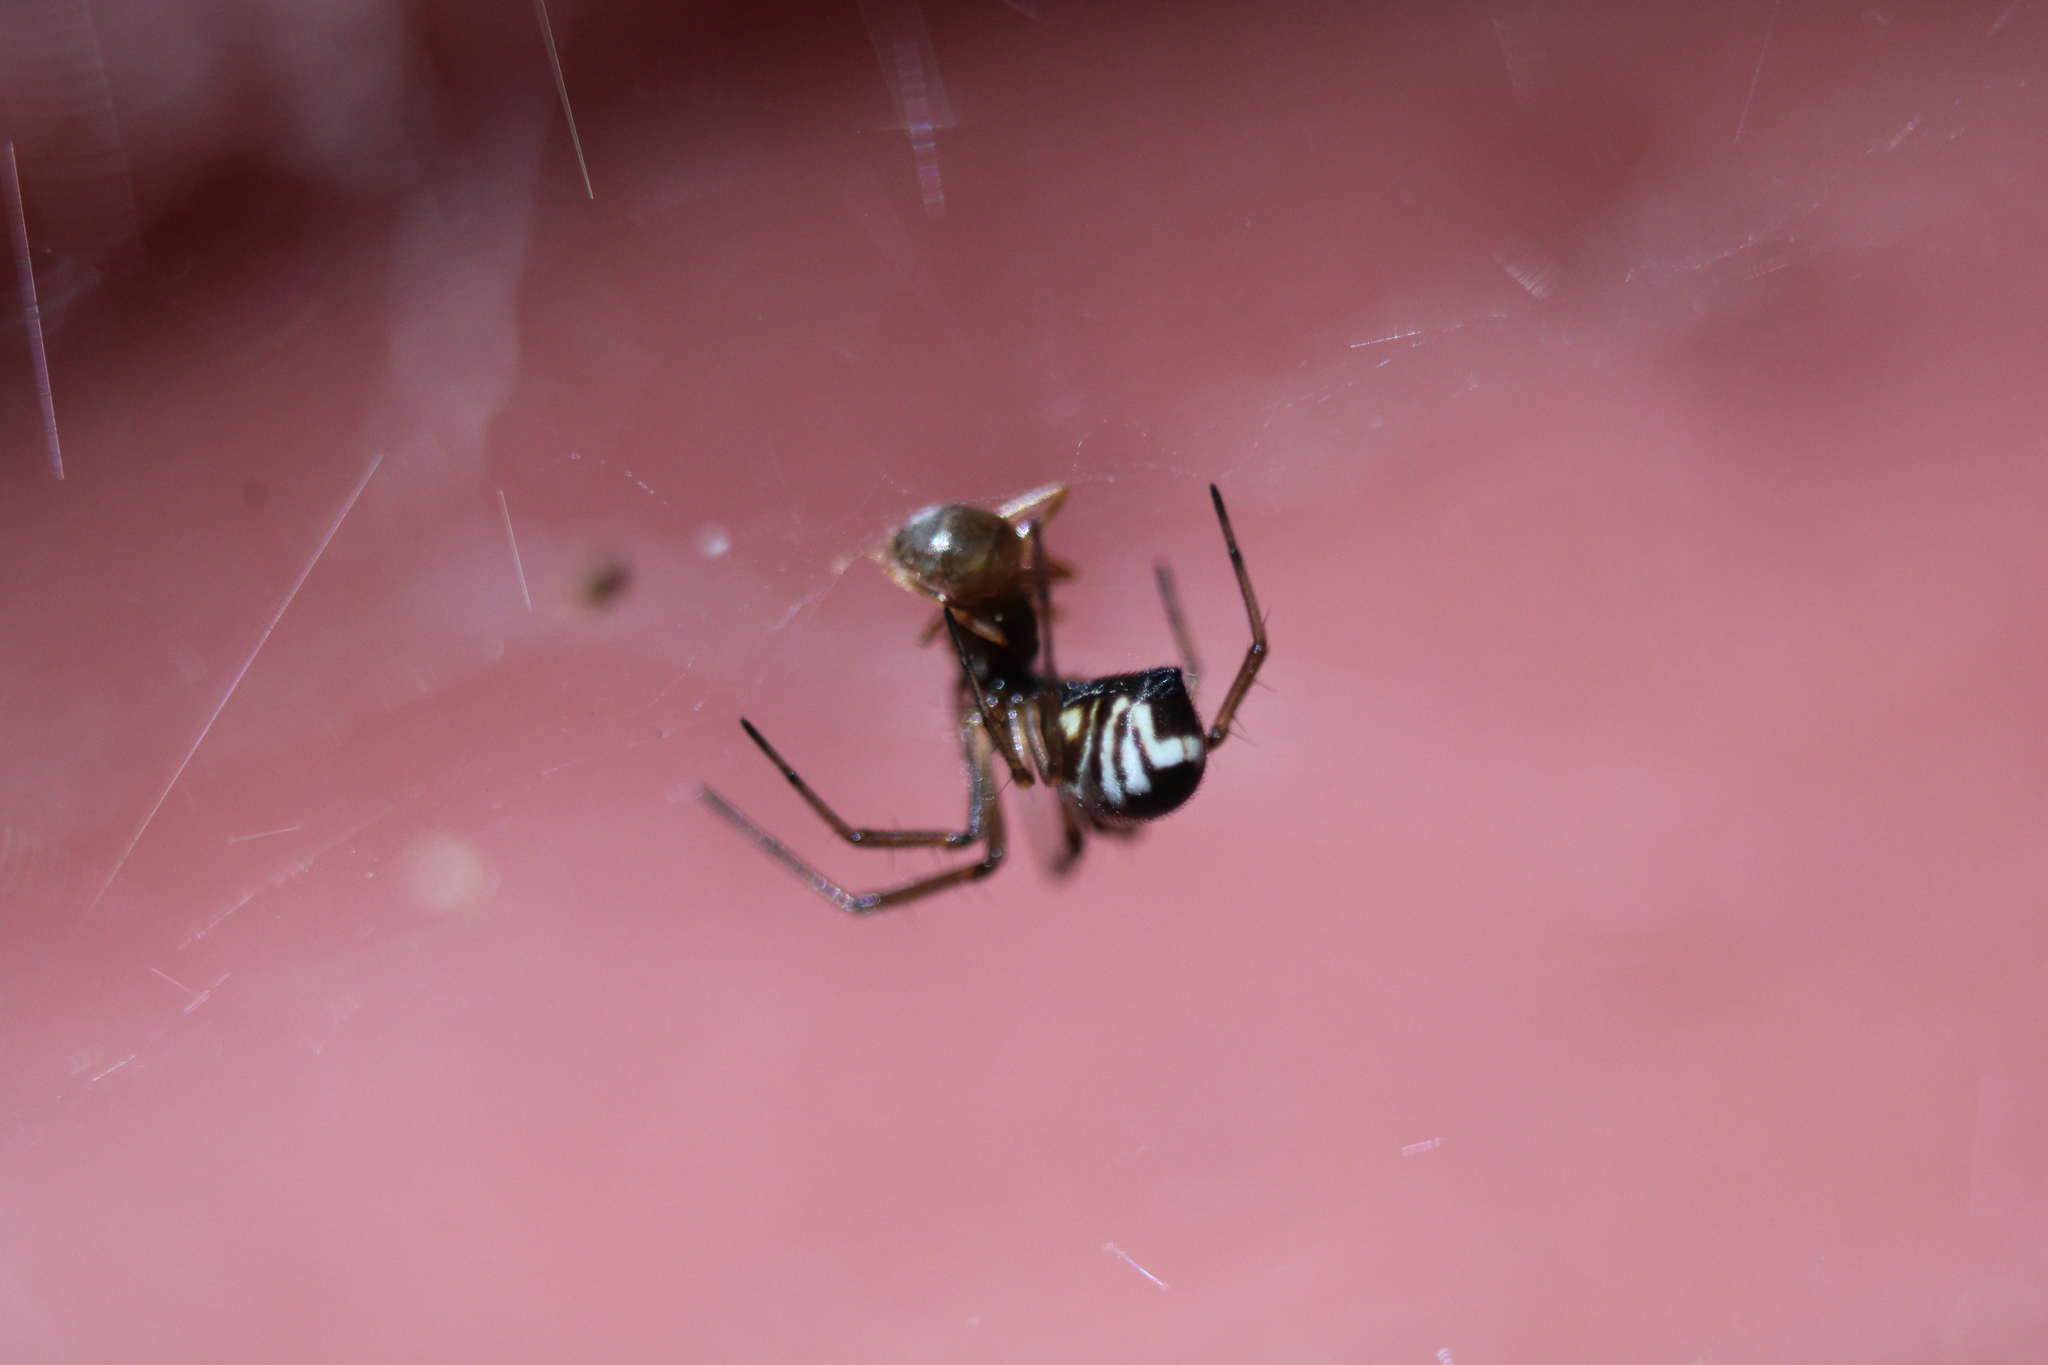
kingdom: Animalia
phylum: Arthropoda
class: Arachnida
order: Araneae
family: Linyphiidae
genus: Frontinella
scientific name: Frontinella pyramitela
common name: Bowl-and-doily spider
